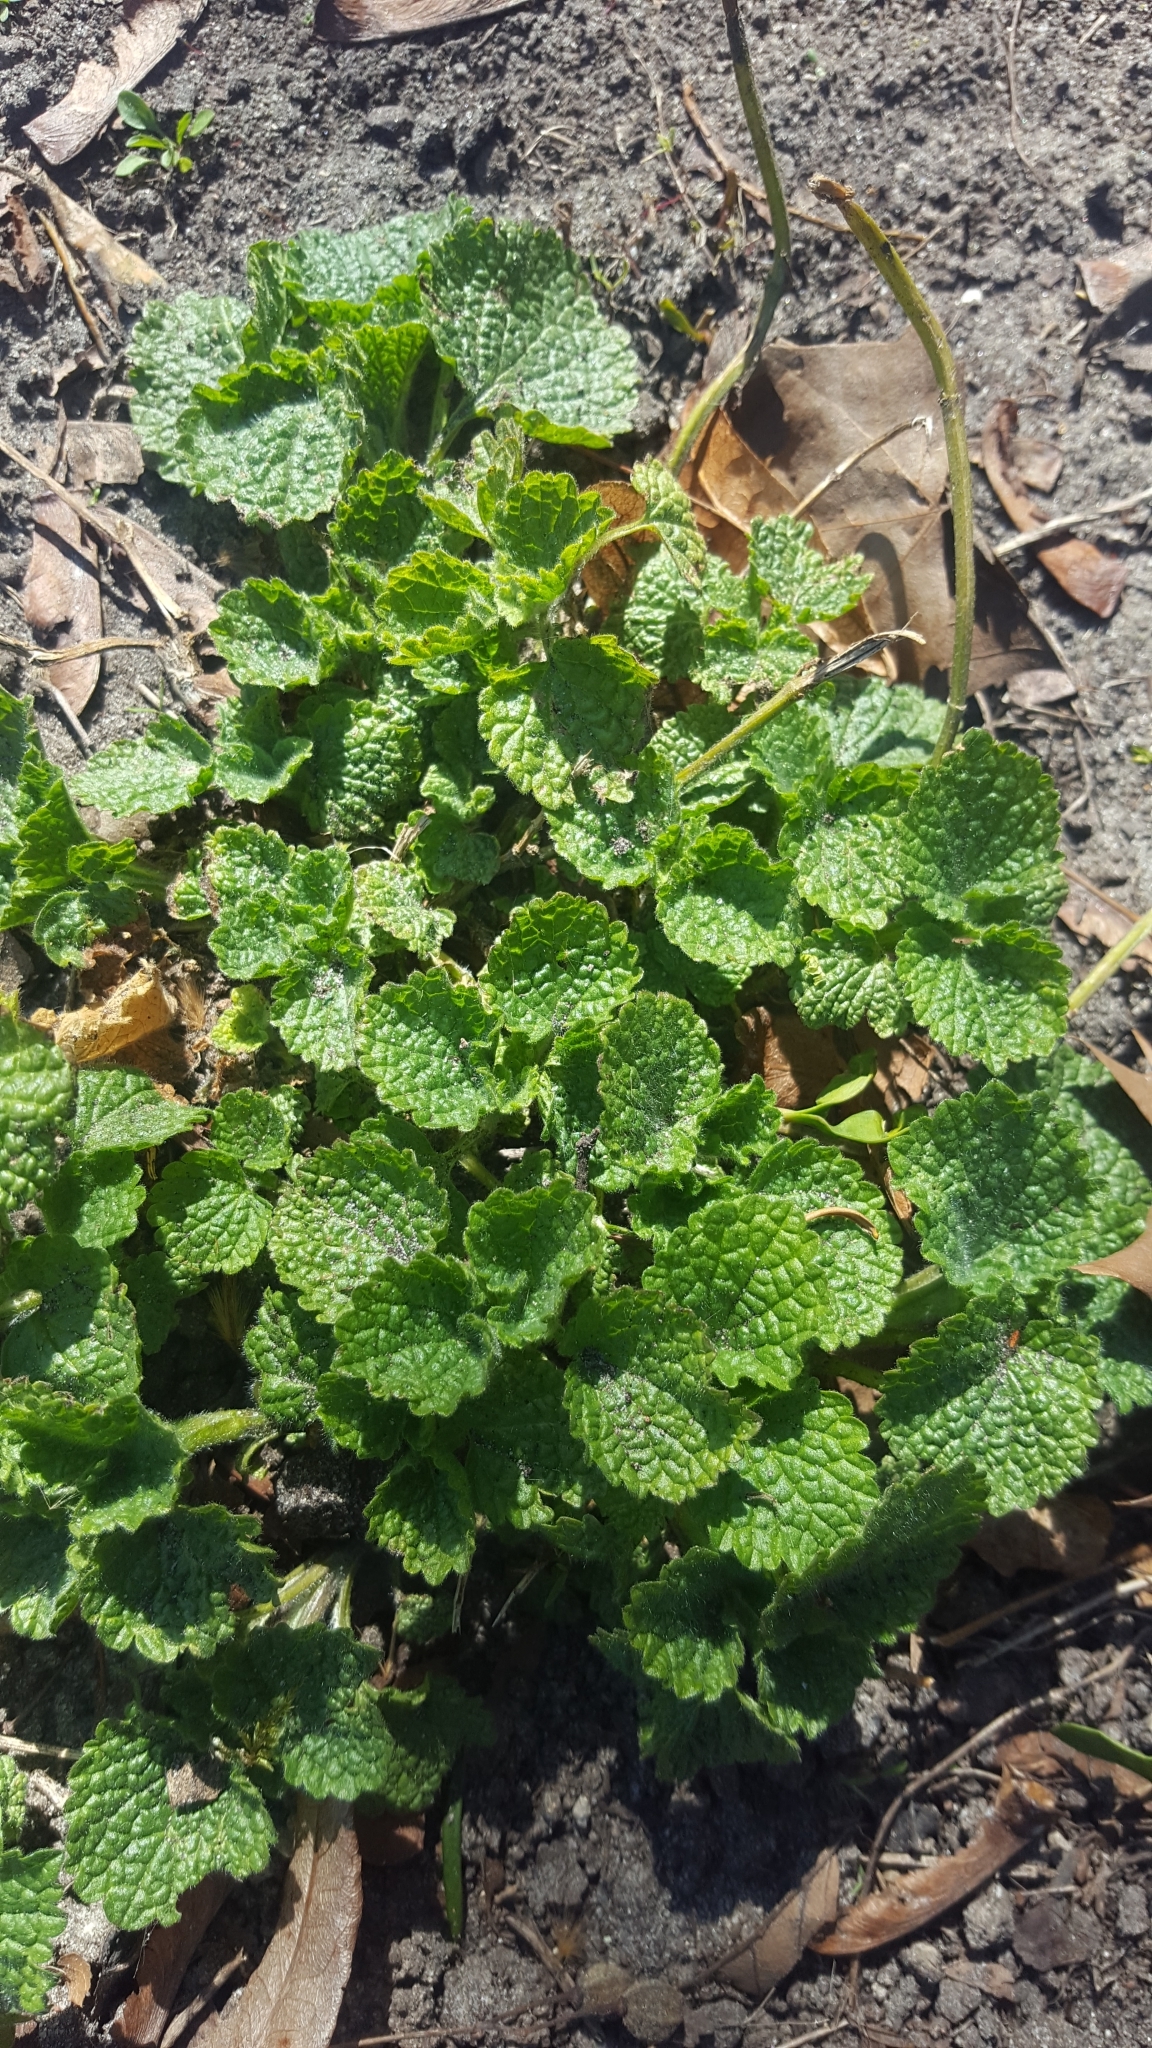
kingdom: Plantae
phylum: Tracheophyta
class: Magnoliopsida
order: Lamiales
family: Lamiaceae
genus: Ballota
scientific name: Ballota nigra
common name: Black horehound
